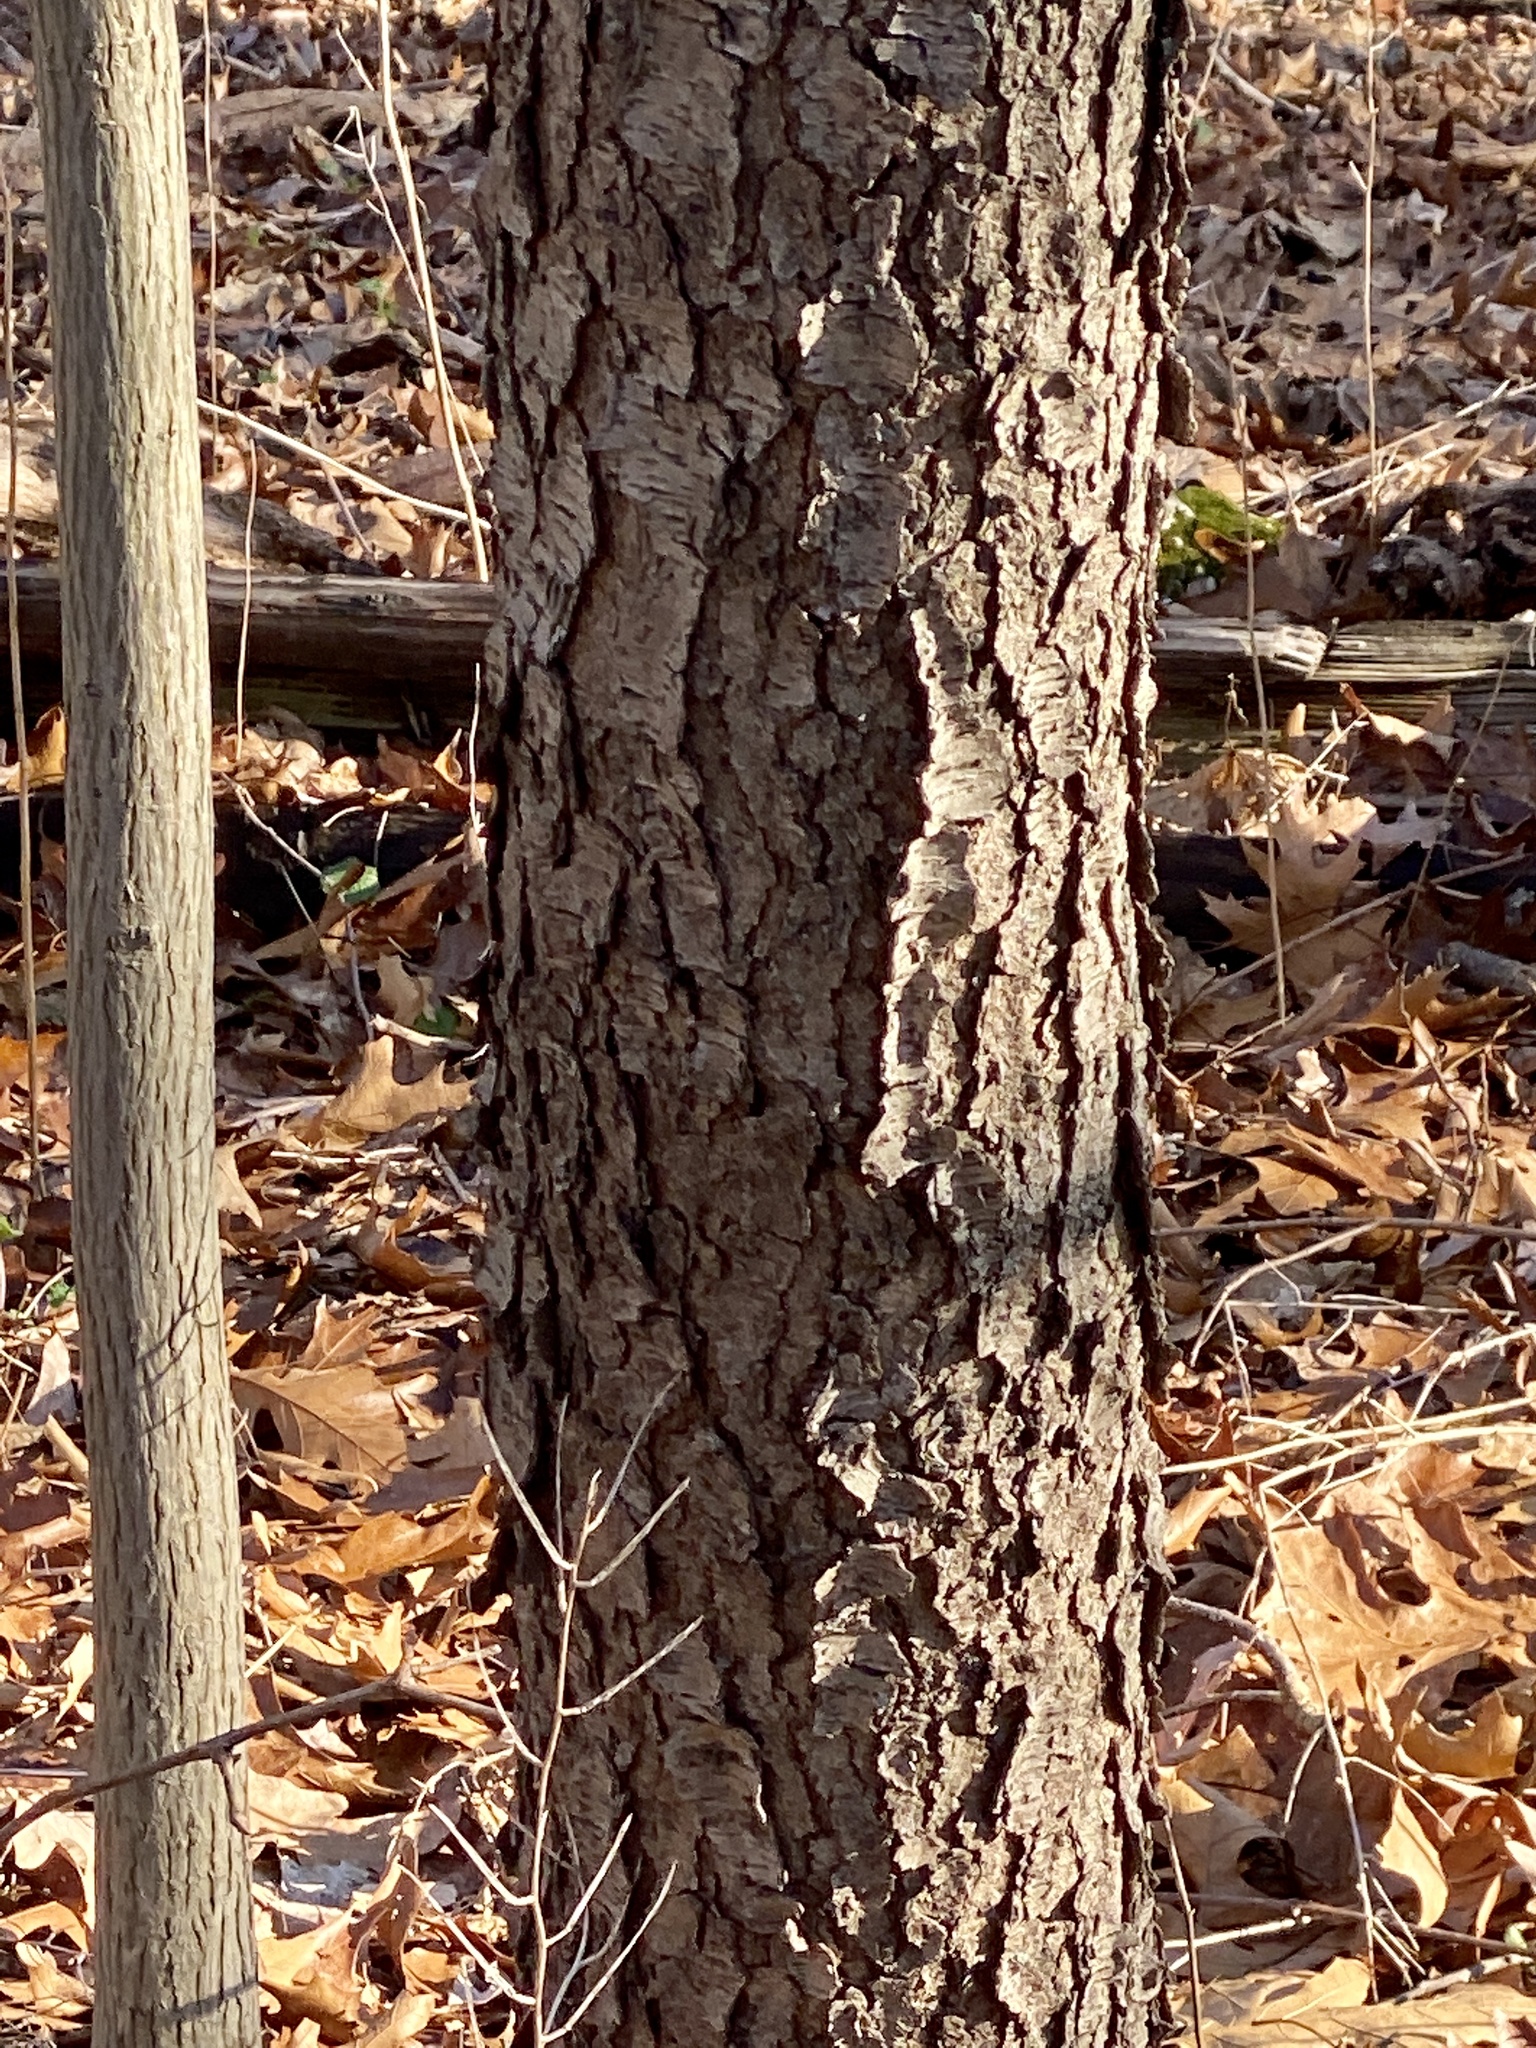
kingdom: Plantae
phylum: Tracheophyta
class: Magnoliopsida
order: Rosales
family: Rosaceae
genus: Prunus
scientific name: Prunus serotina
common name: Black cherry
